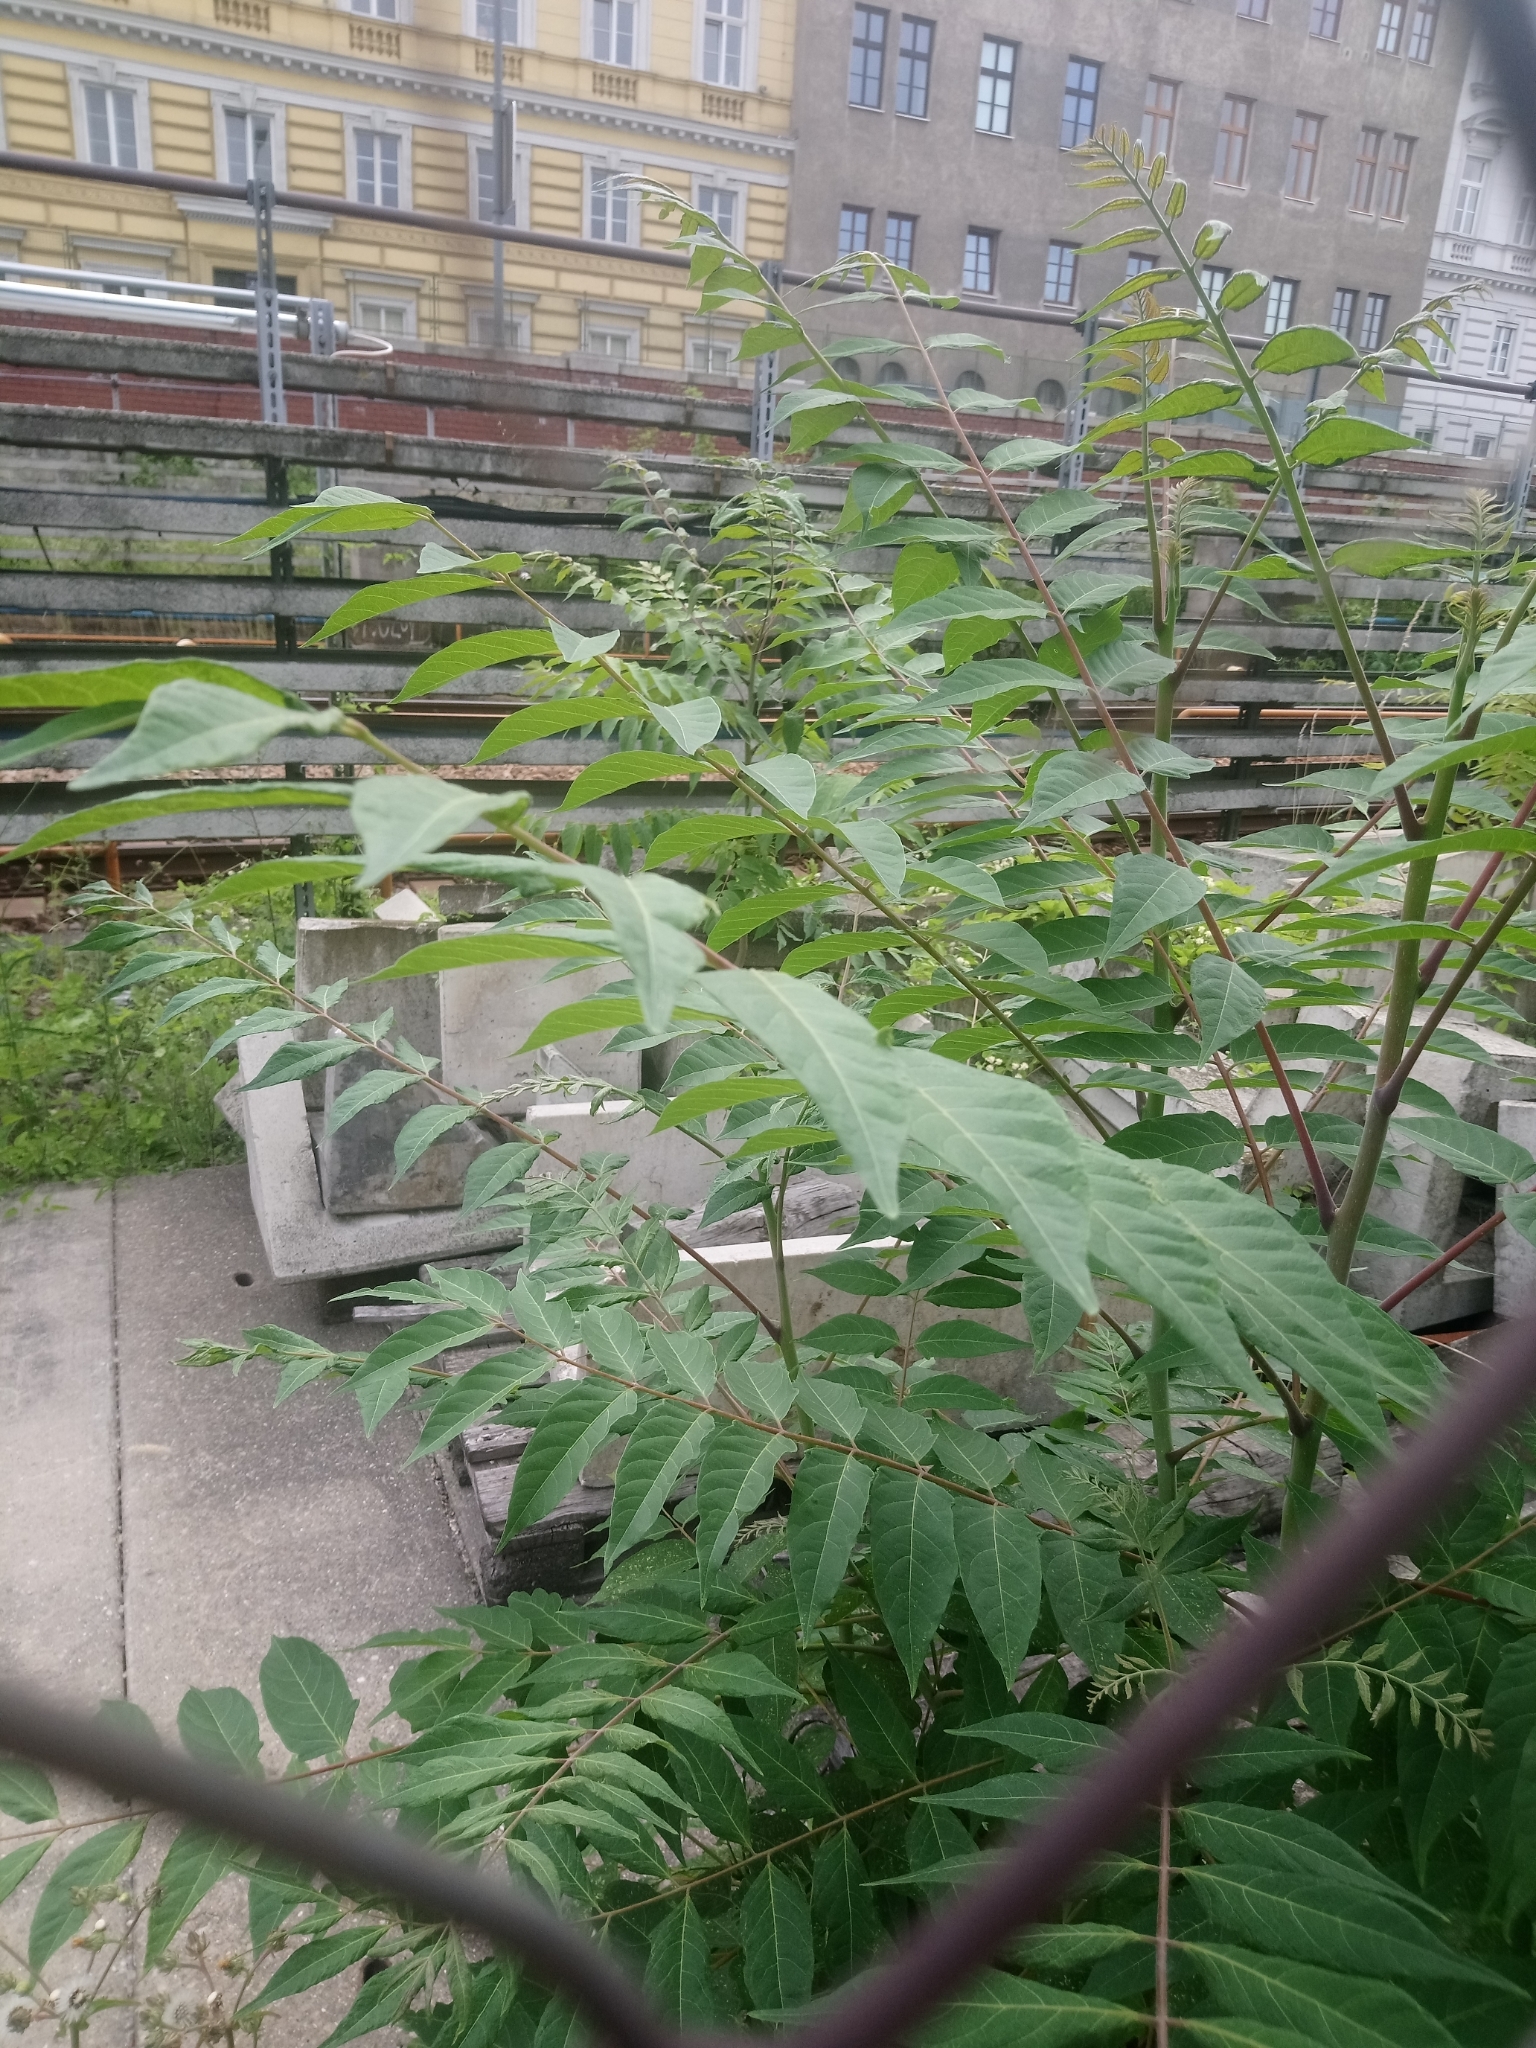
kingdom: Plantae
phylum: Tracheophyta
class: Magnoliopsida
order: Sapindales
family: Simaroubaceae
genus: Ailanthus
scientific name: Ailanthus altissima
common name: Tree-of-heaven
